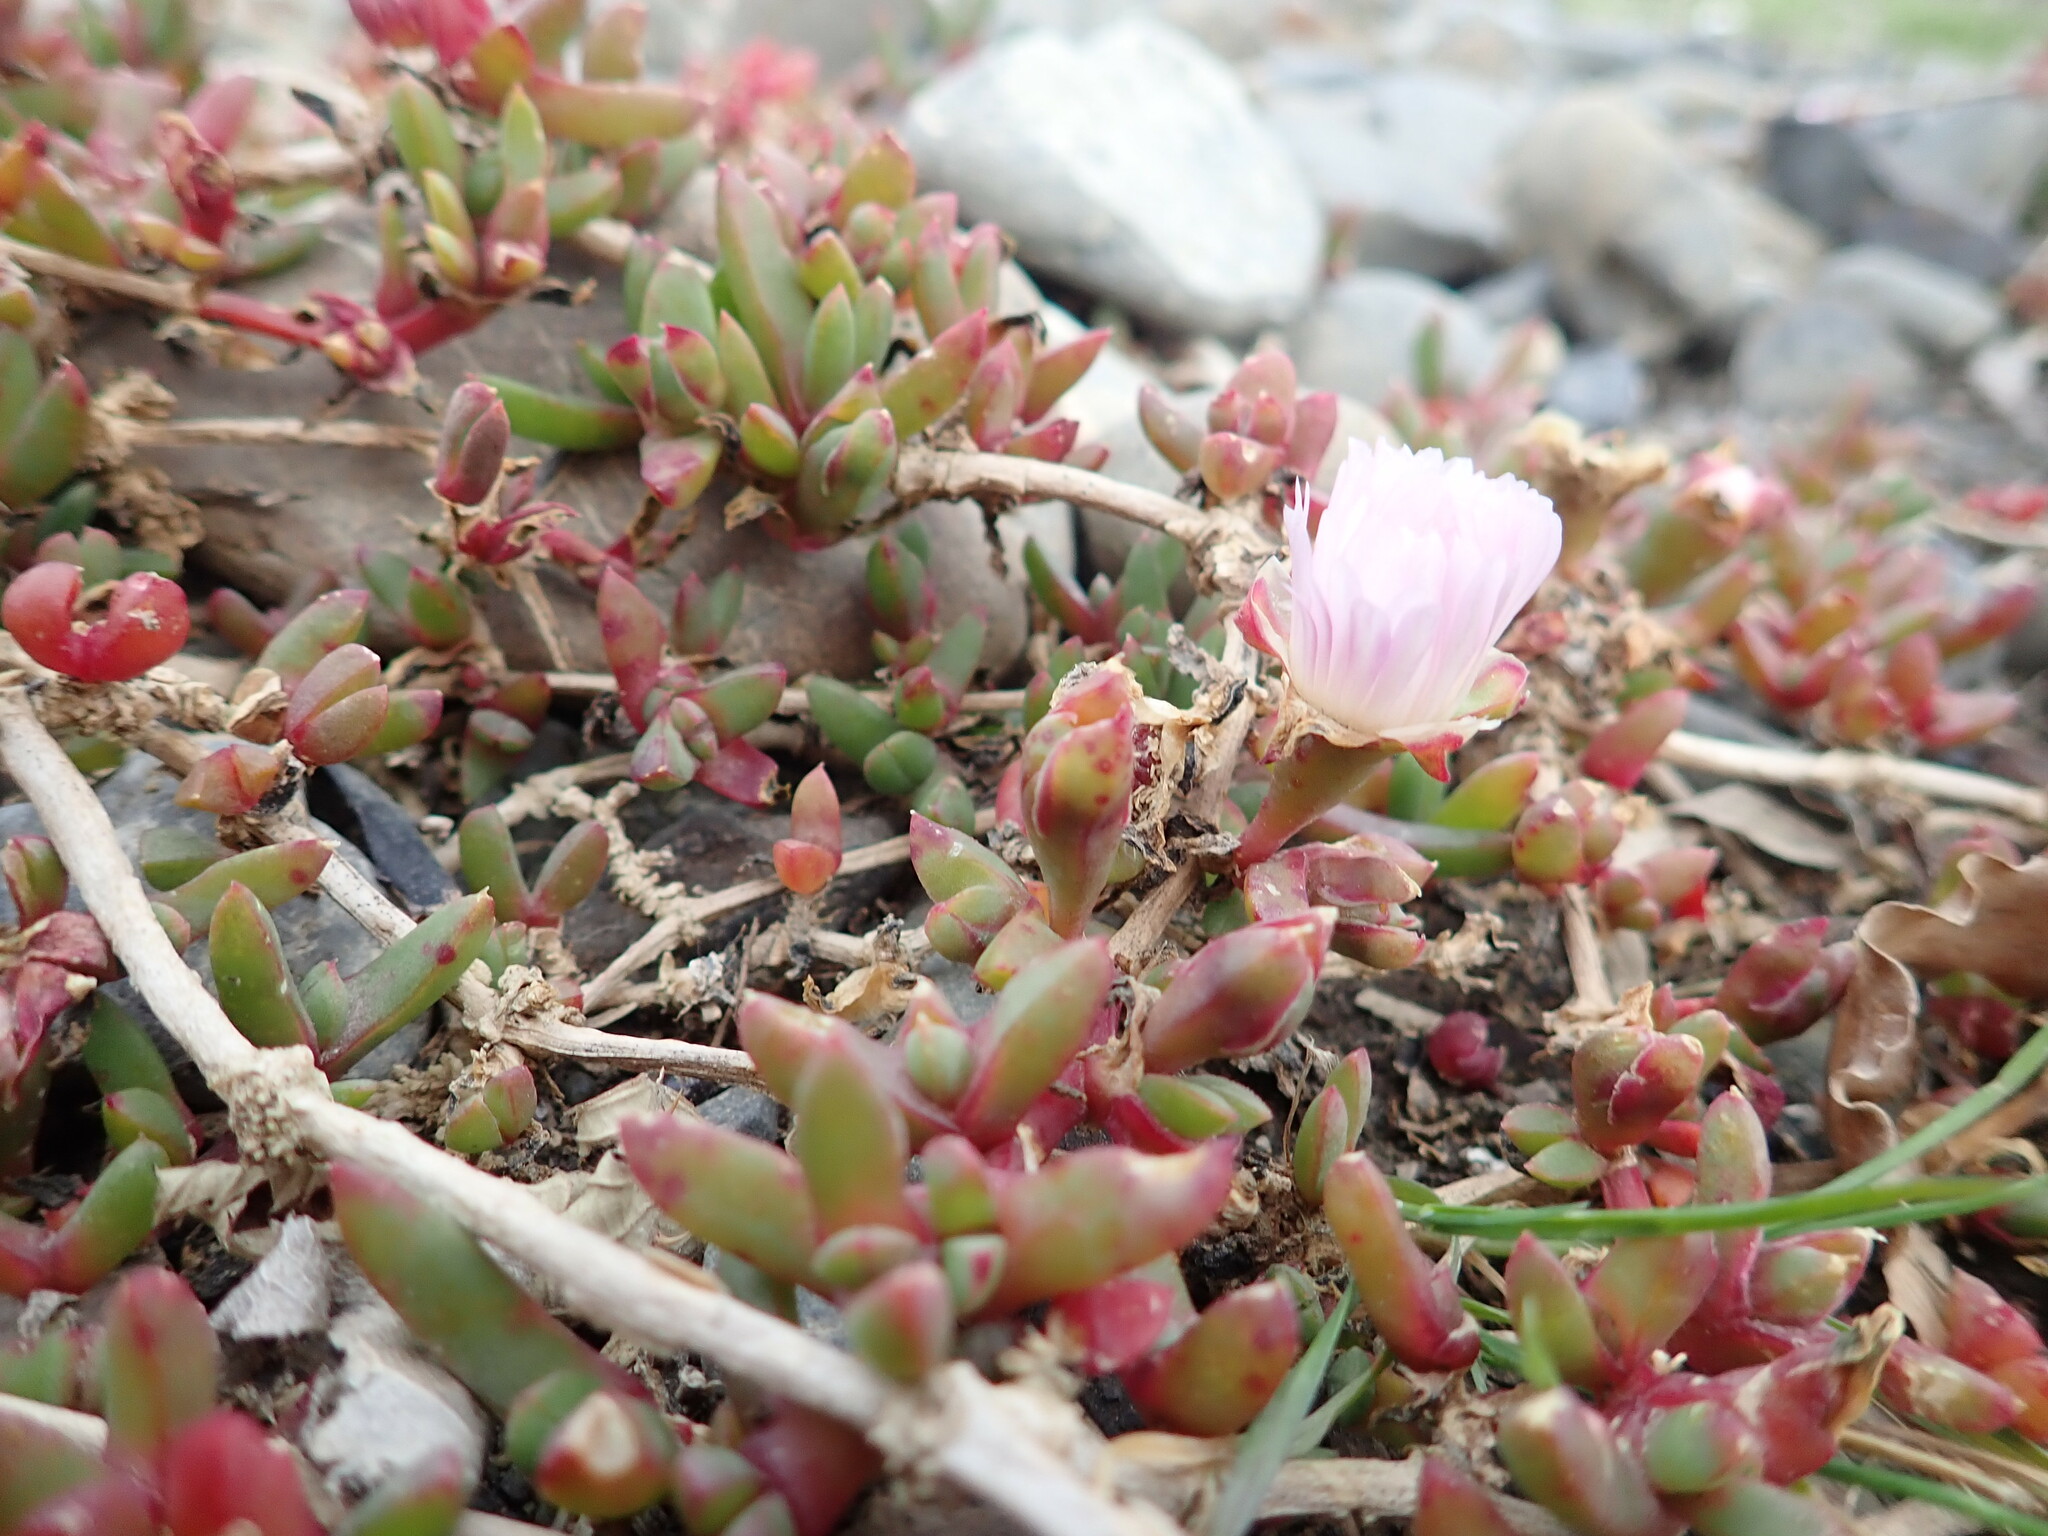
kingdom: Plantae
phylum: Tracheophyta
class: Magnoliopsida
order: Caryophyllales
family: Aizoaceae
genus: Disphyma
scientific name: Disphyma australe
